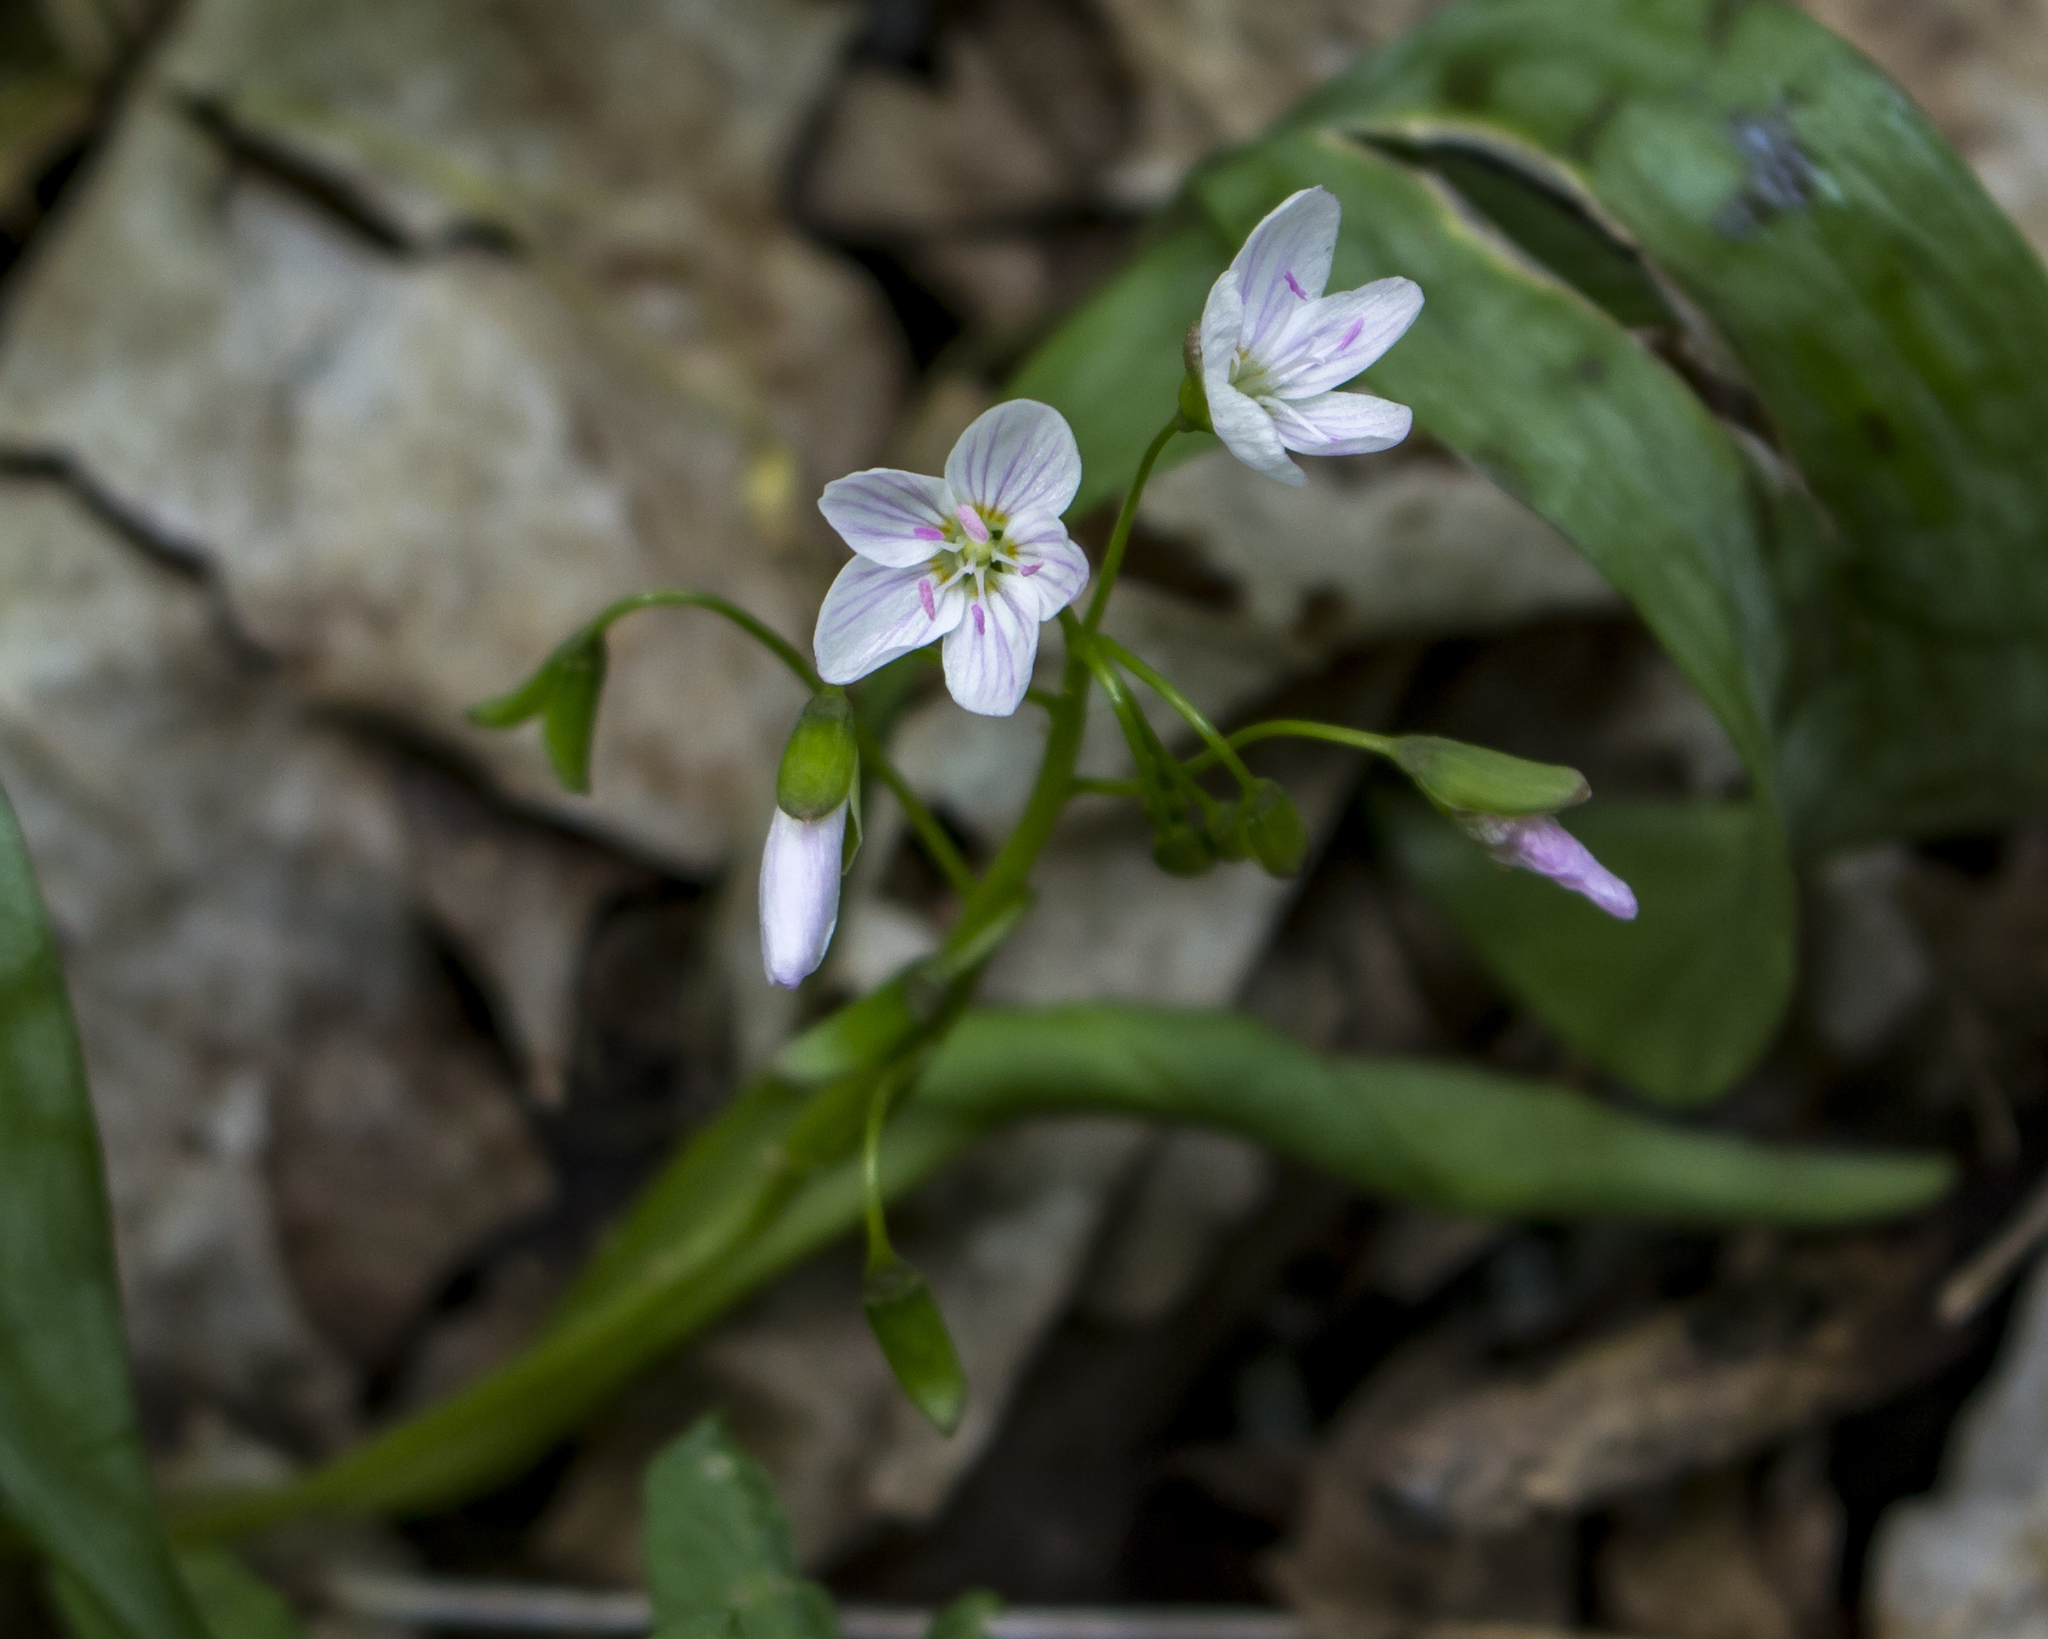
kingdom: Plantae
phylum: Tracheophyta
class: Magnoliopsida
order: Caryophyllales
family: Montiaceae
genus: Claytonia
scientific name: Claytonia virginica
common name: Virginia springbeauty
